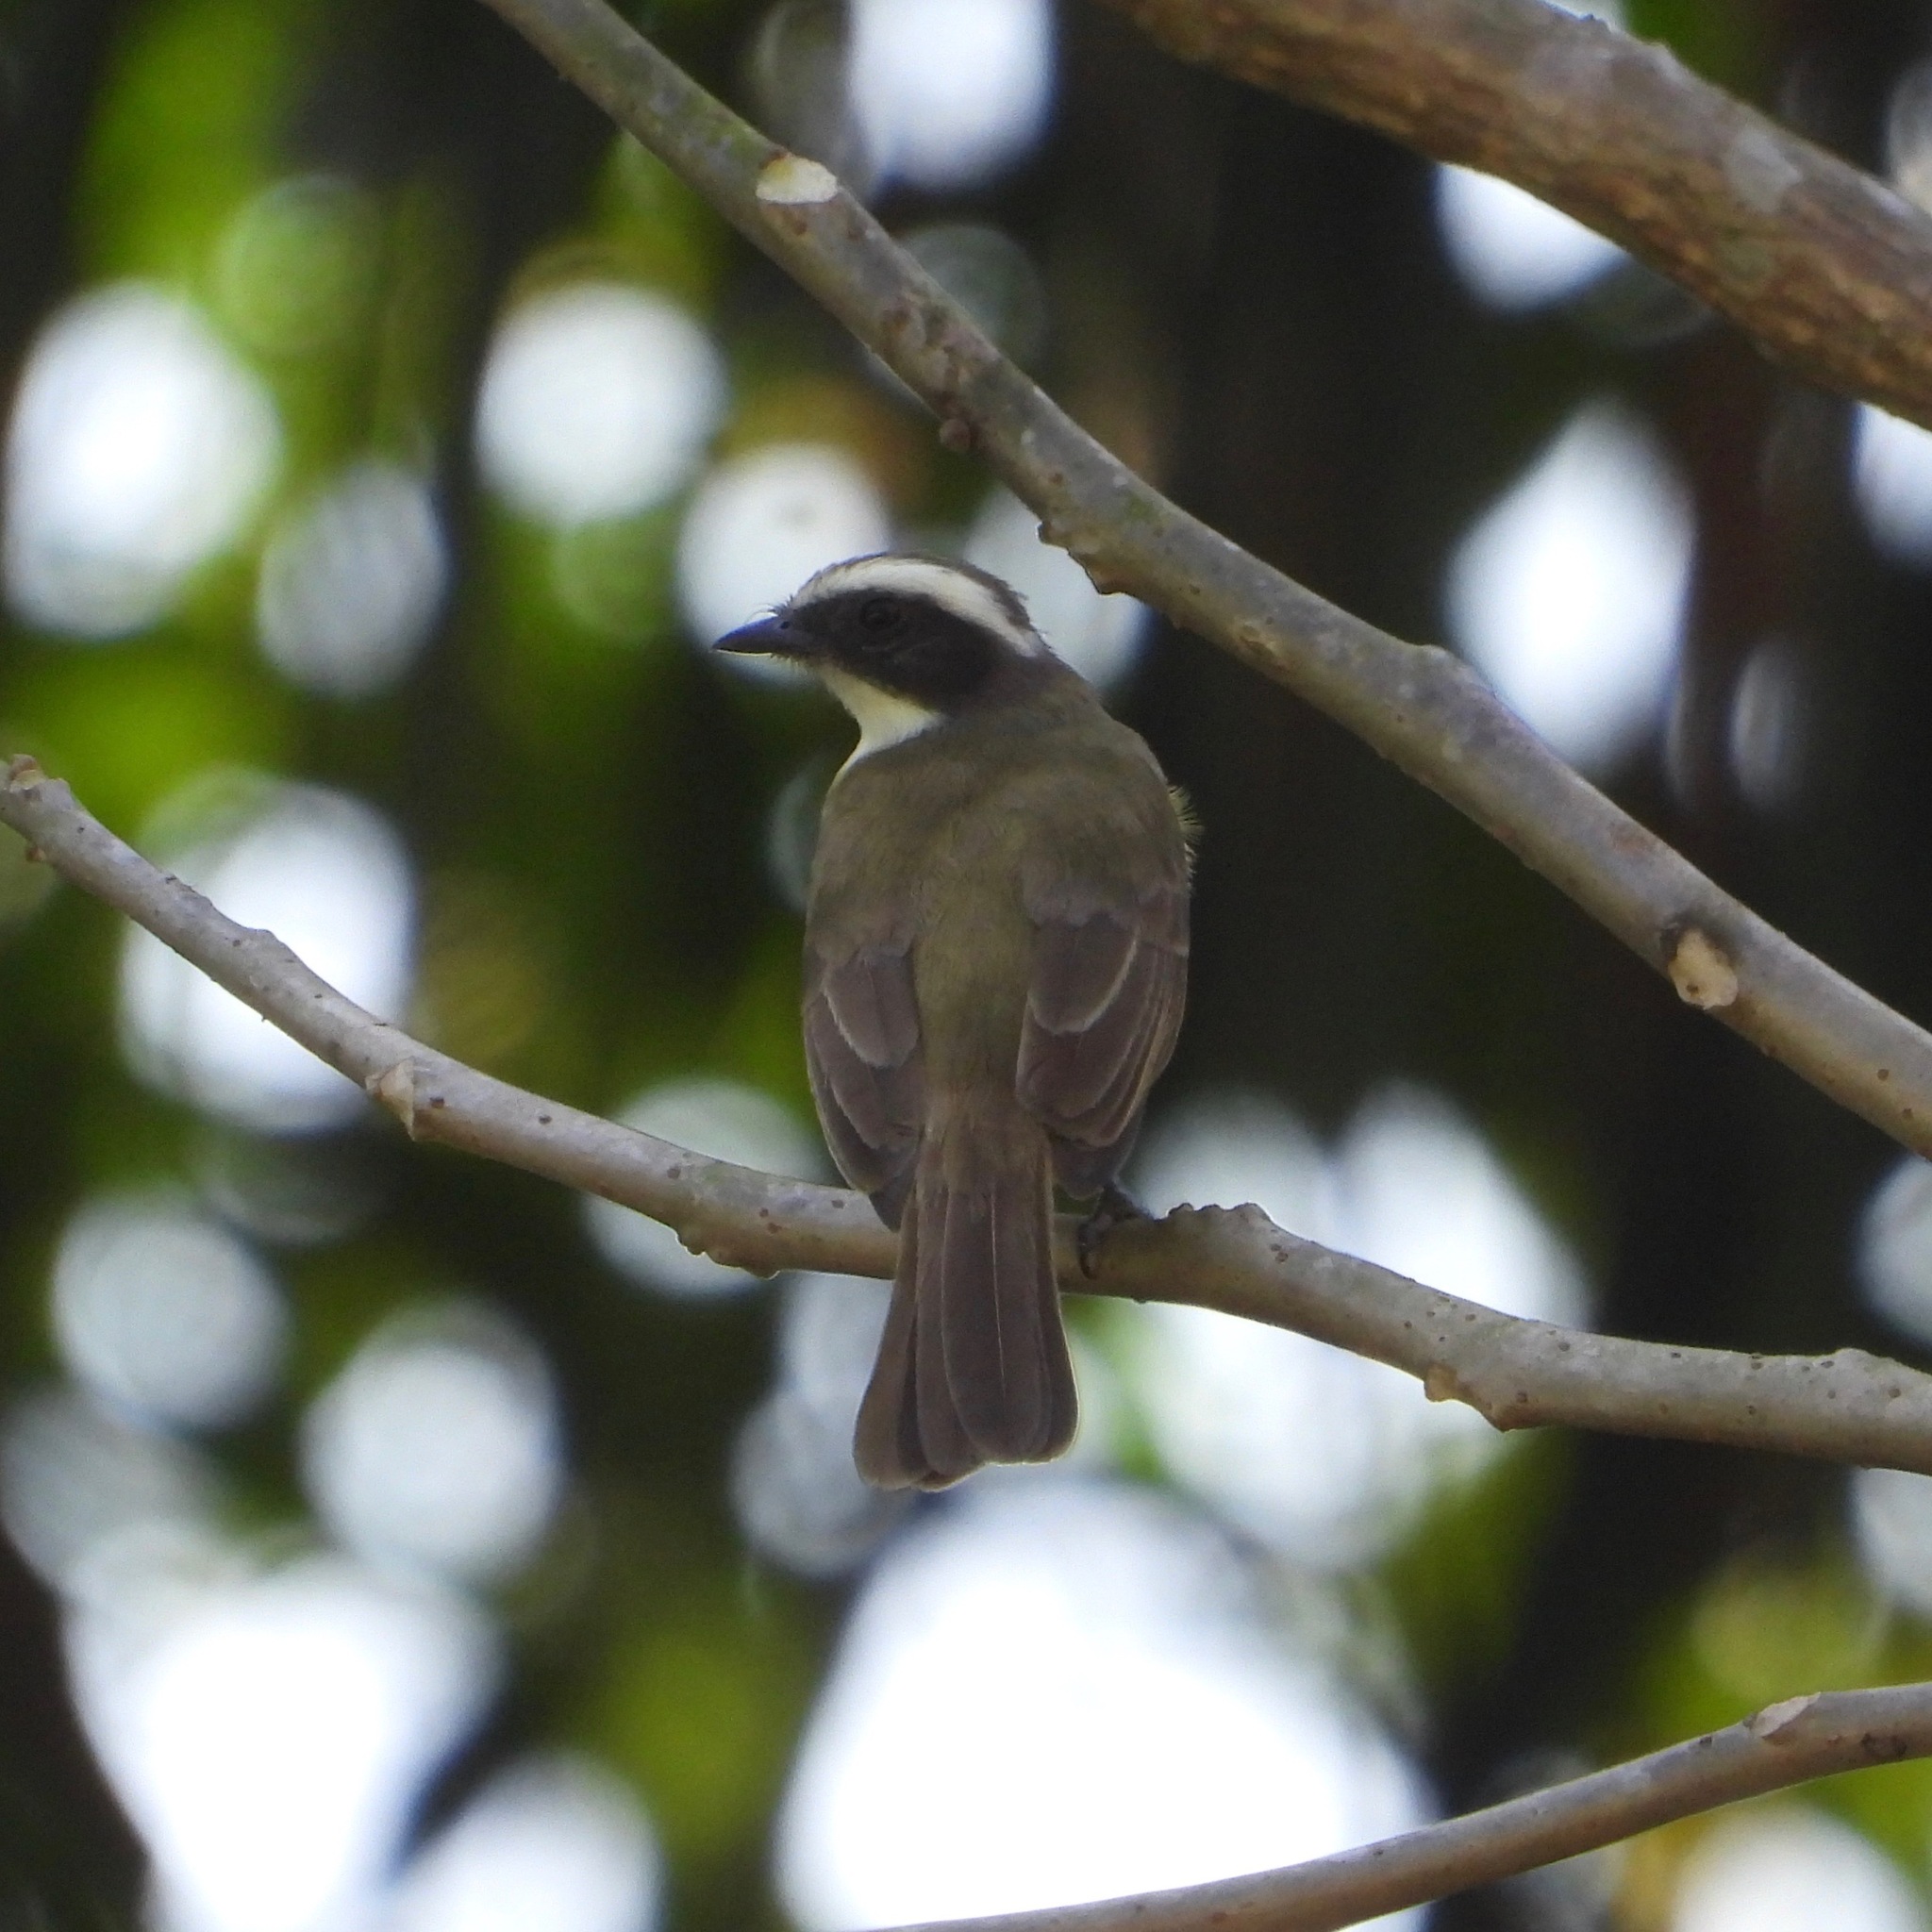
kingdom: Animalia
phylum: Chordata
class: Aves
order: Passeriformes
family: Tyrannidae
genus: Myiozetetes
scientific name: Myiozetetes similis
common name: Social flycatcher
